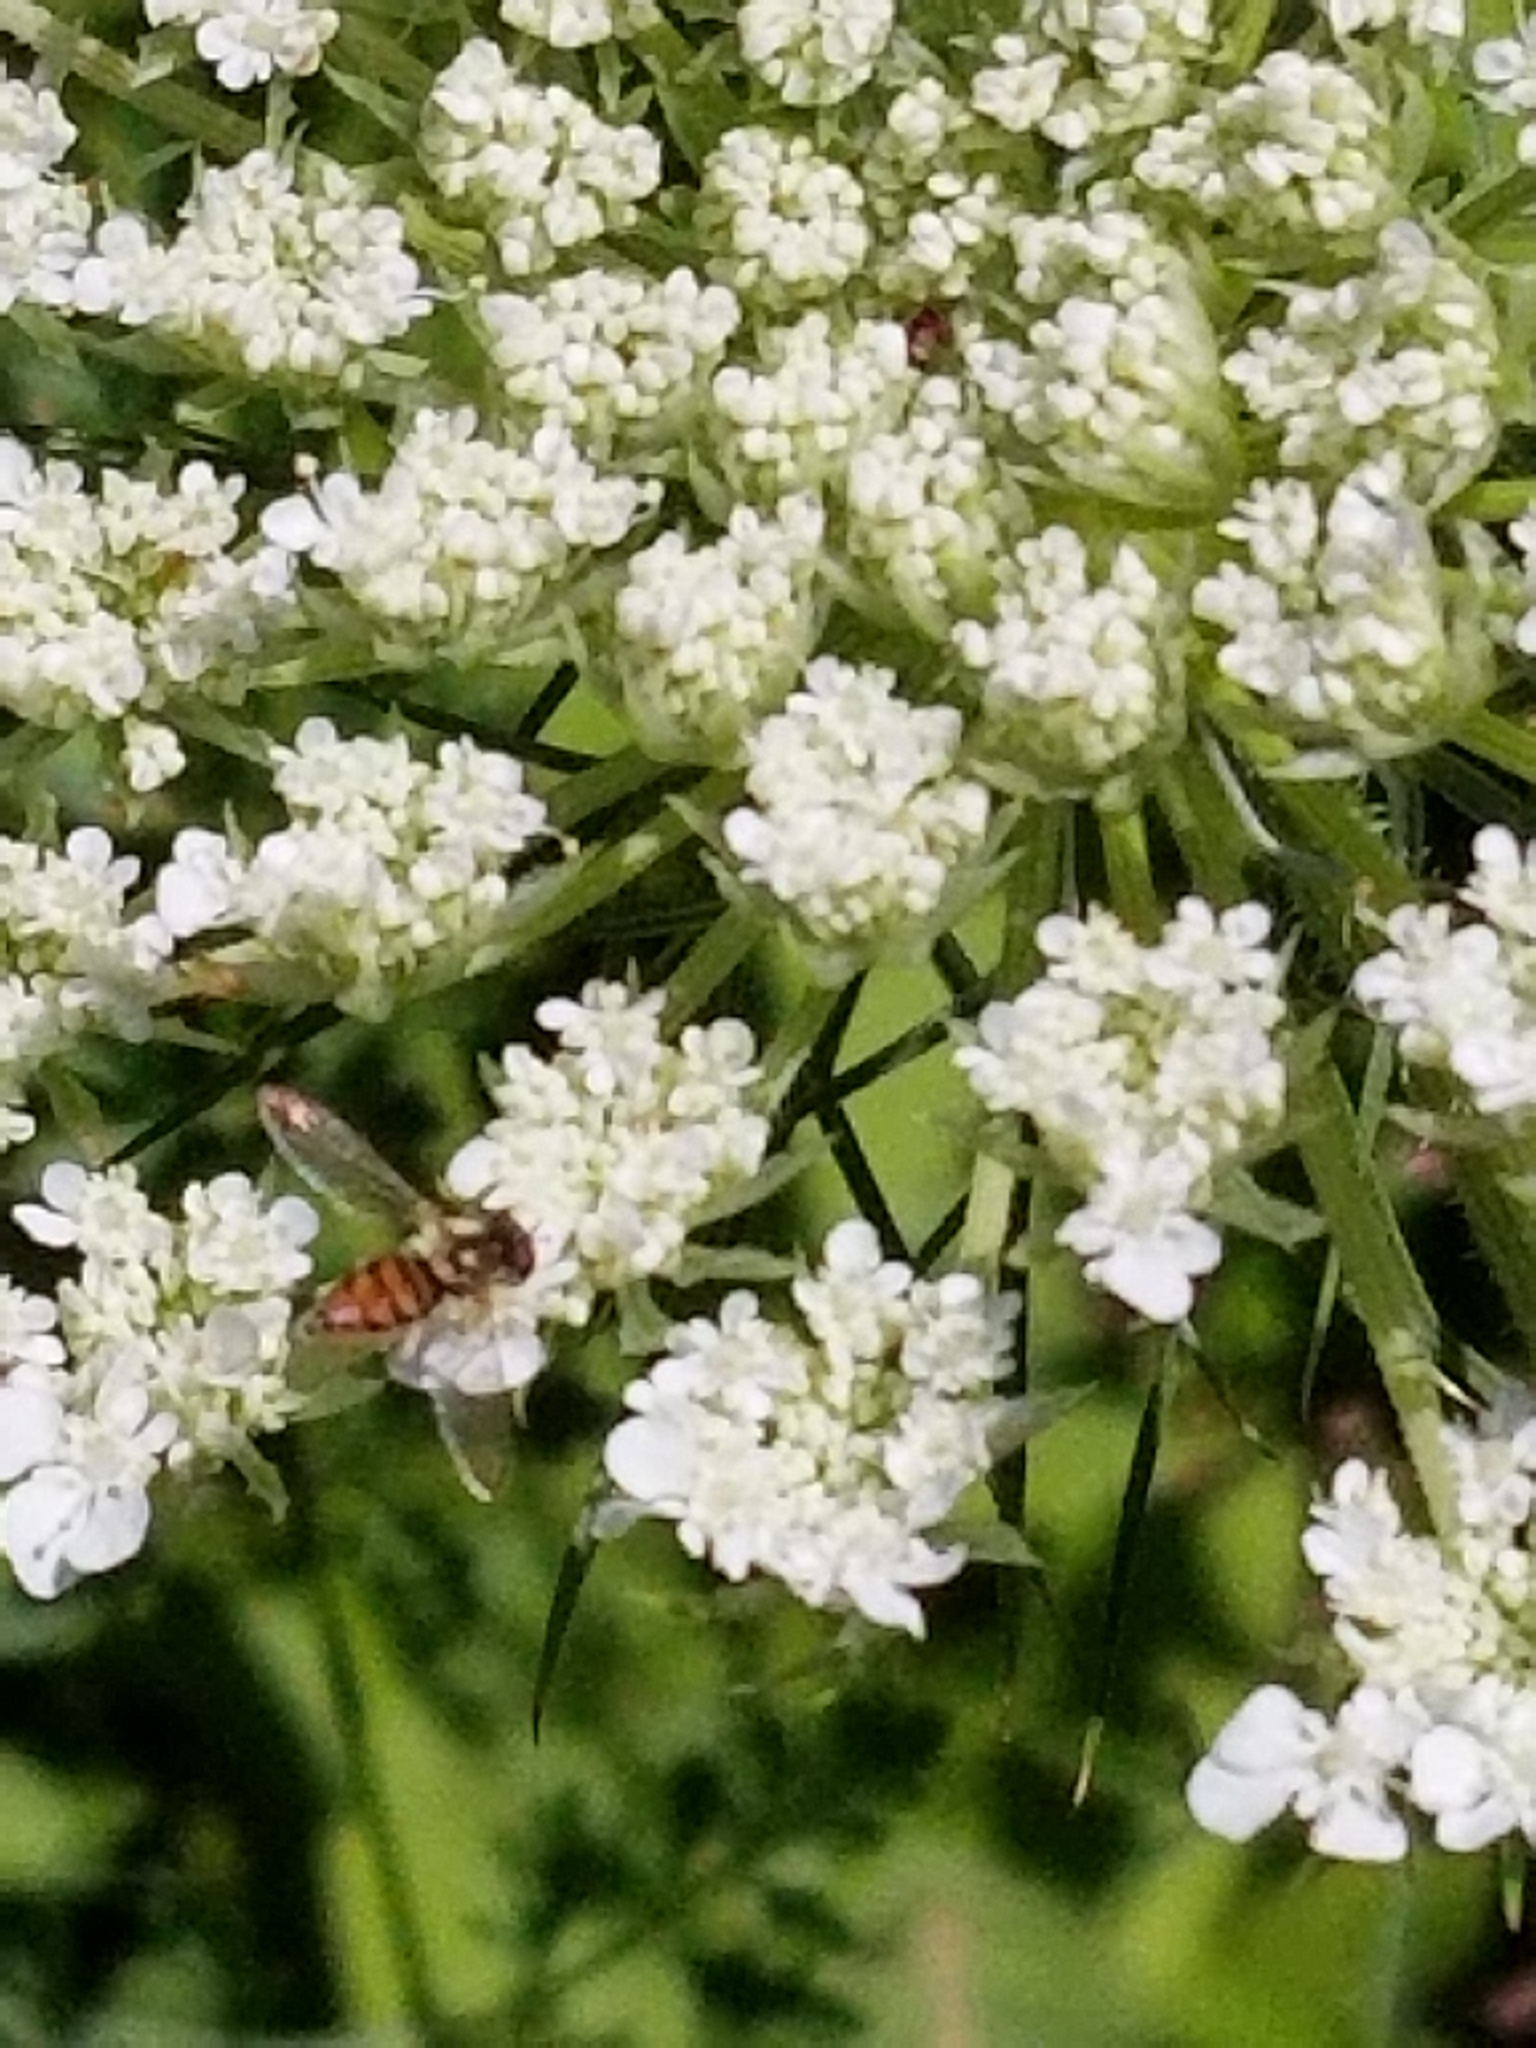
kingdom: Plantae
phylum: Tracheophyta
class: Magnoliopsida
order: Apiales
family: Apiaceae
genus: Daucus
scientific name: Daucus carota
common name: Wild carrot
